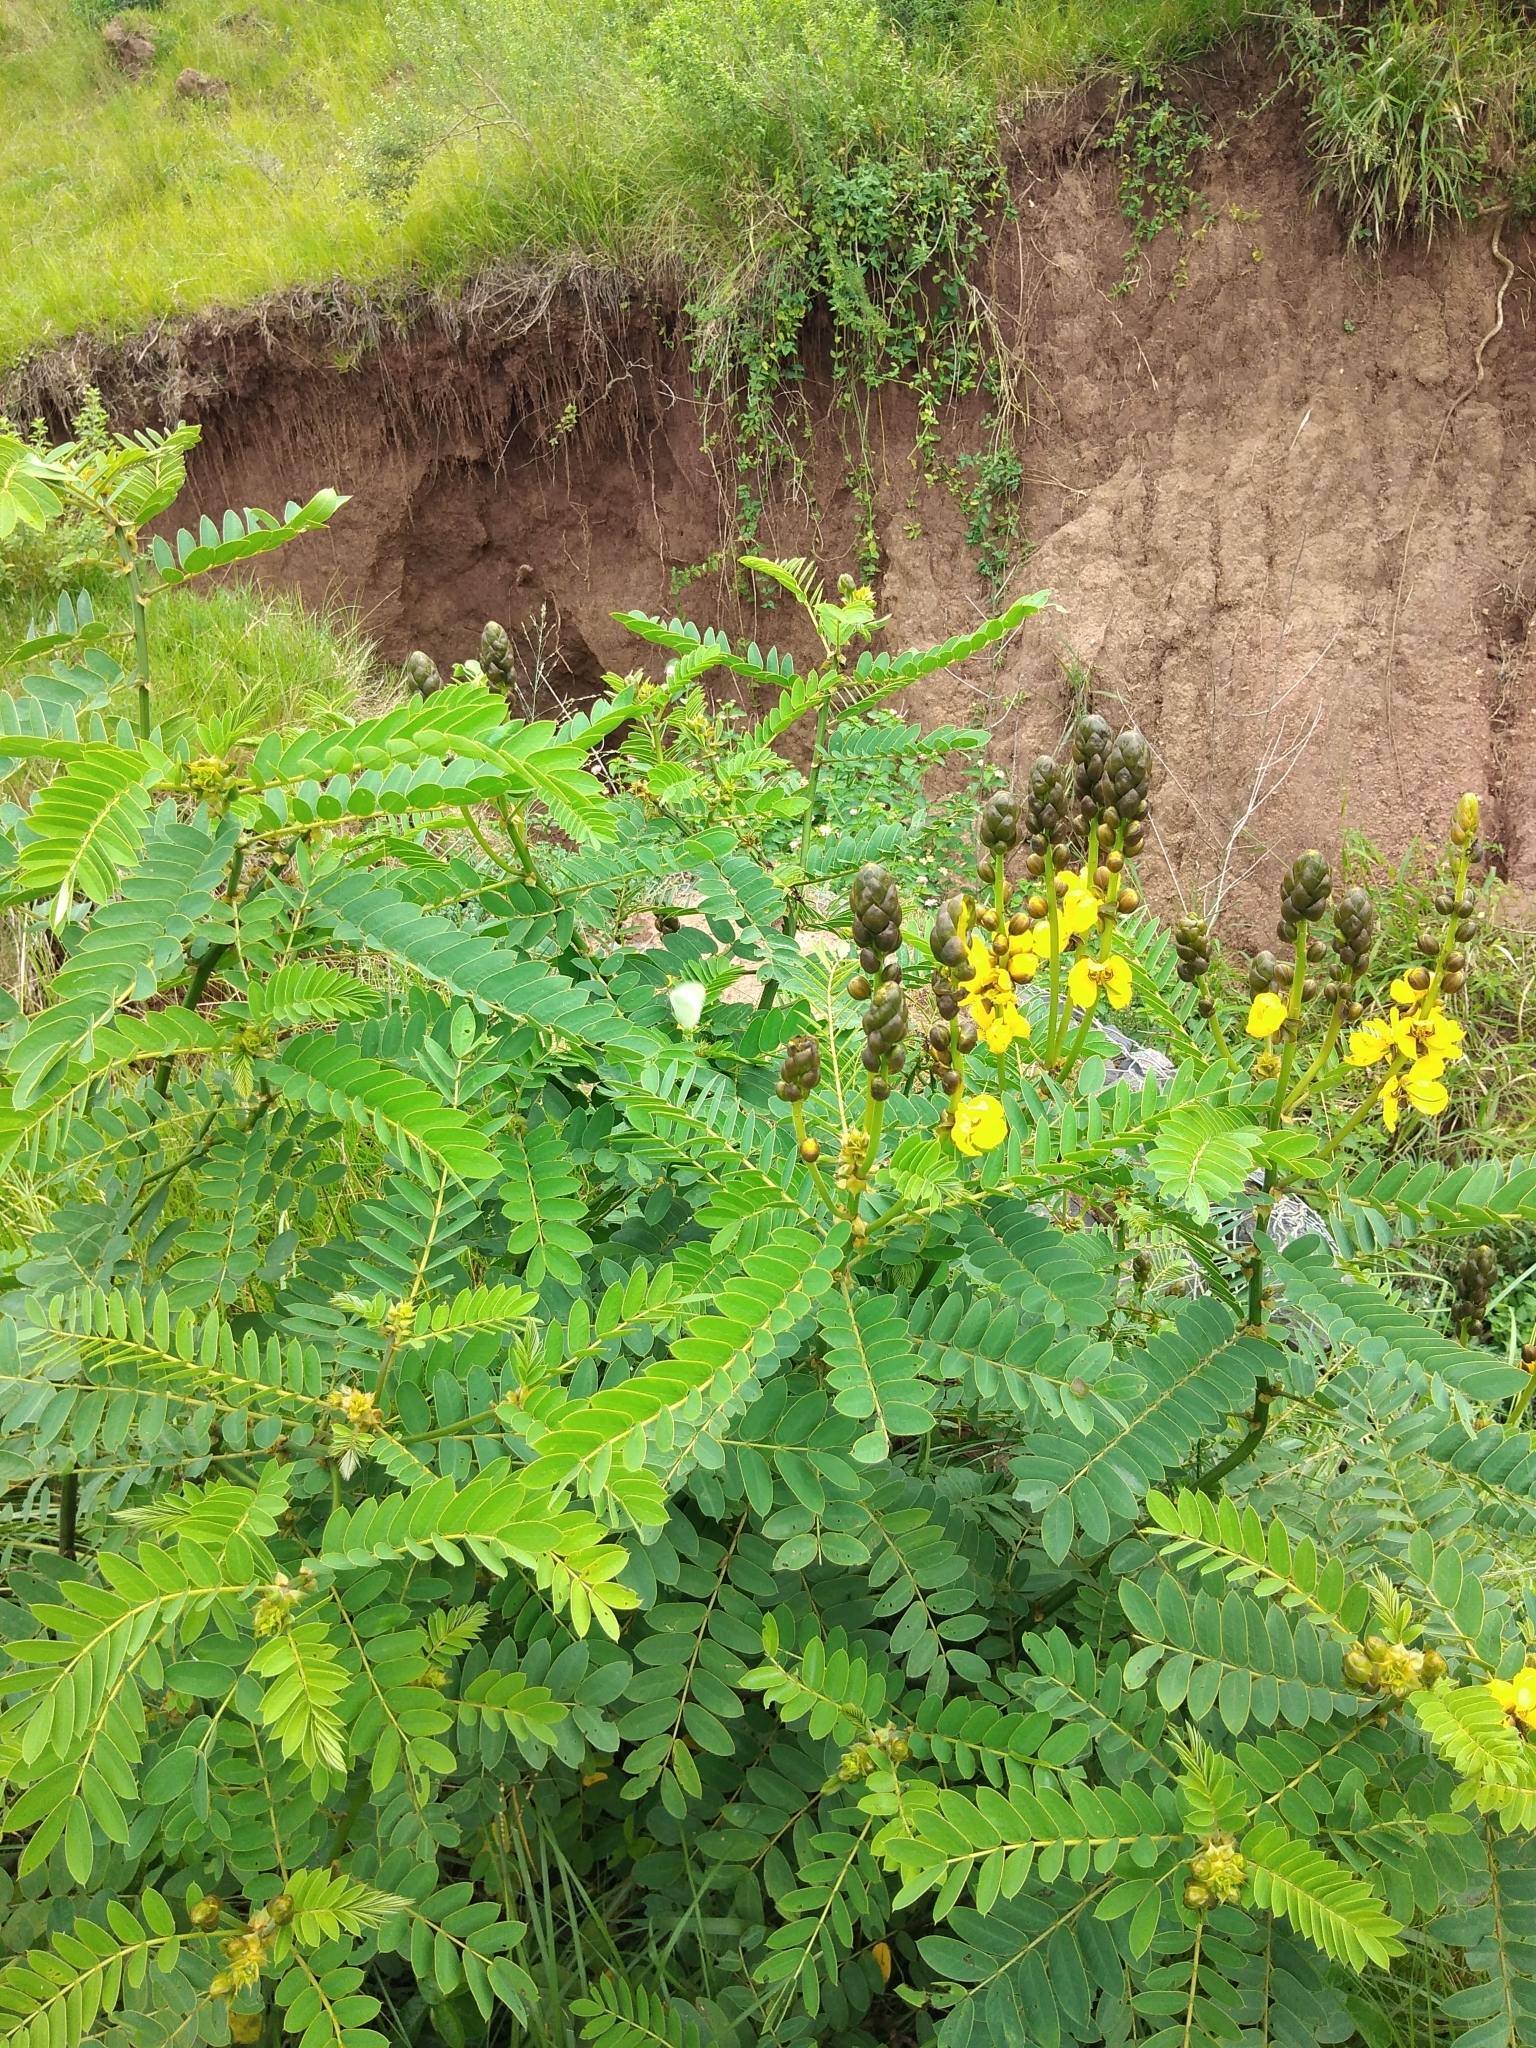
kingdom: Plantae
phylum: Tracheophyta
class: Magnoliopsida
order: Fabales
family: Fabaceae
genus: Senna
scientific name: Senna didymobotrya
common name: African senna
